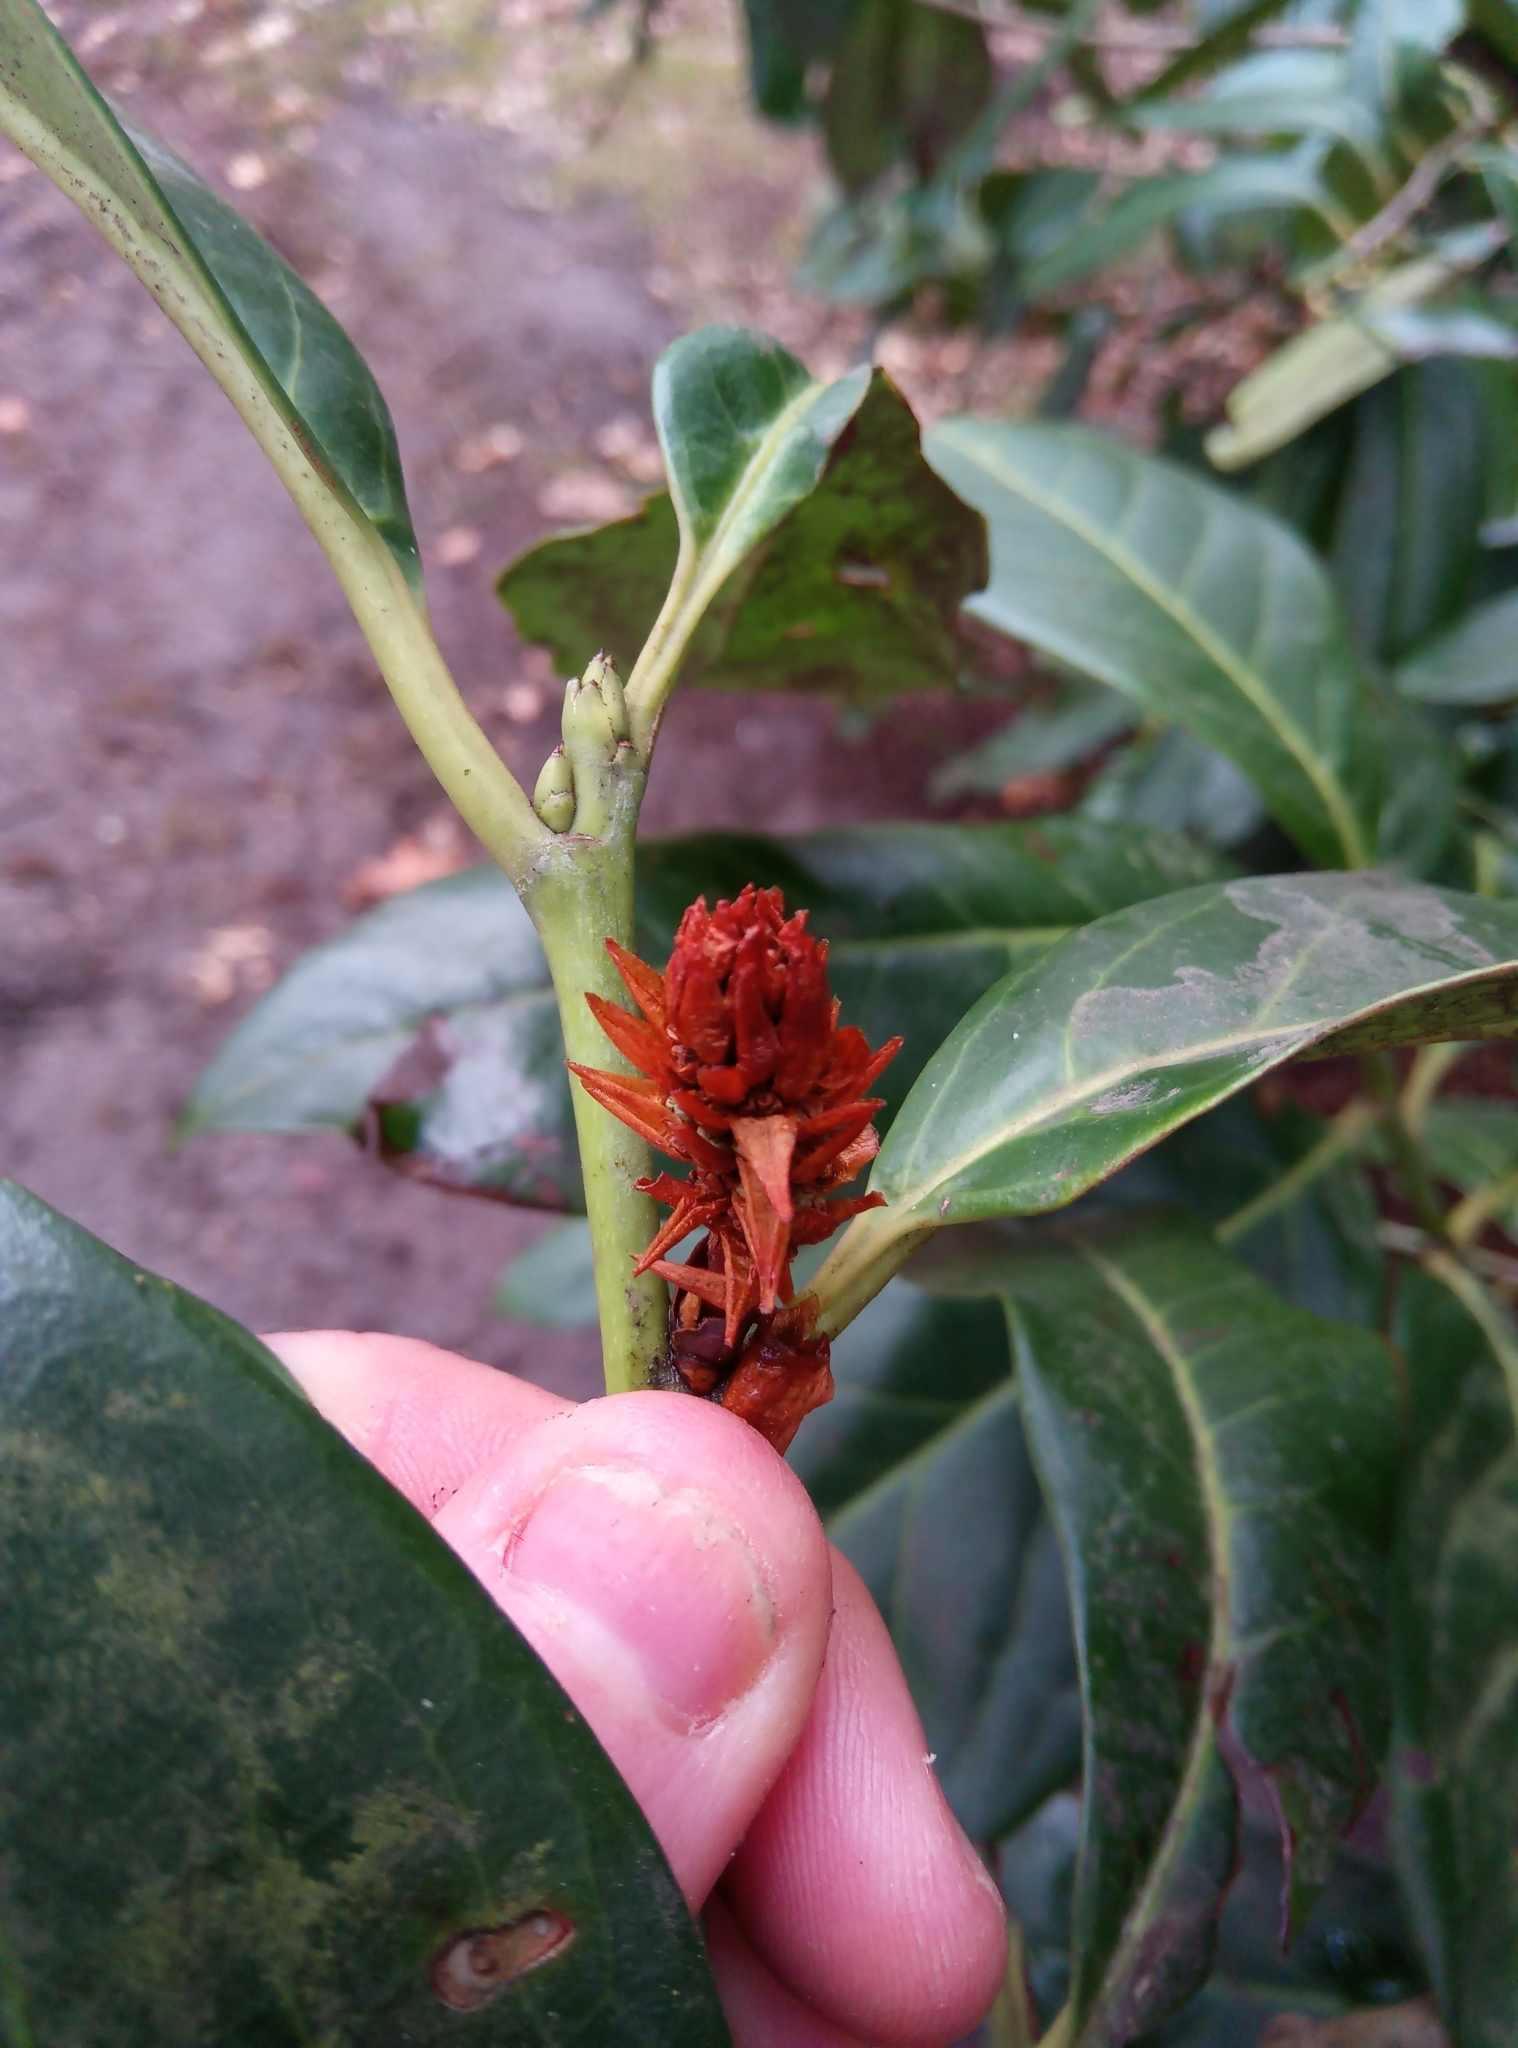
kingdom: Plantae
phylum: Tracheophyta
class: Magnoliopsida
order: Rosales
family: Rosaceae
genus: Prunus
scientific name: Prunus laurocerasus
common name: Cherry laurel
